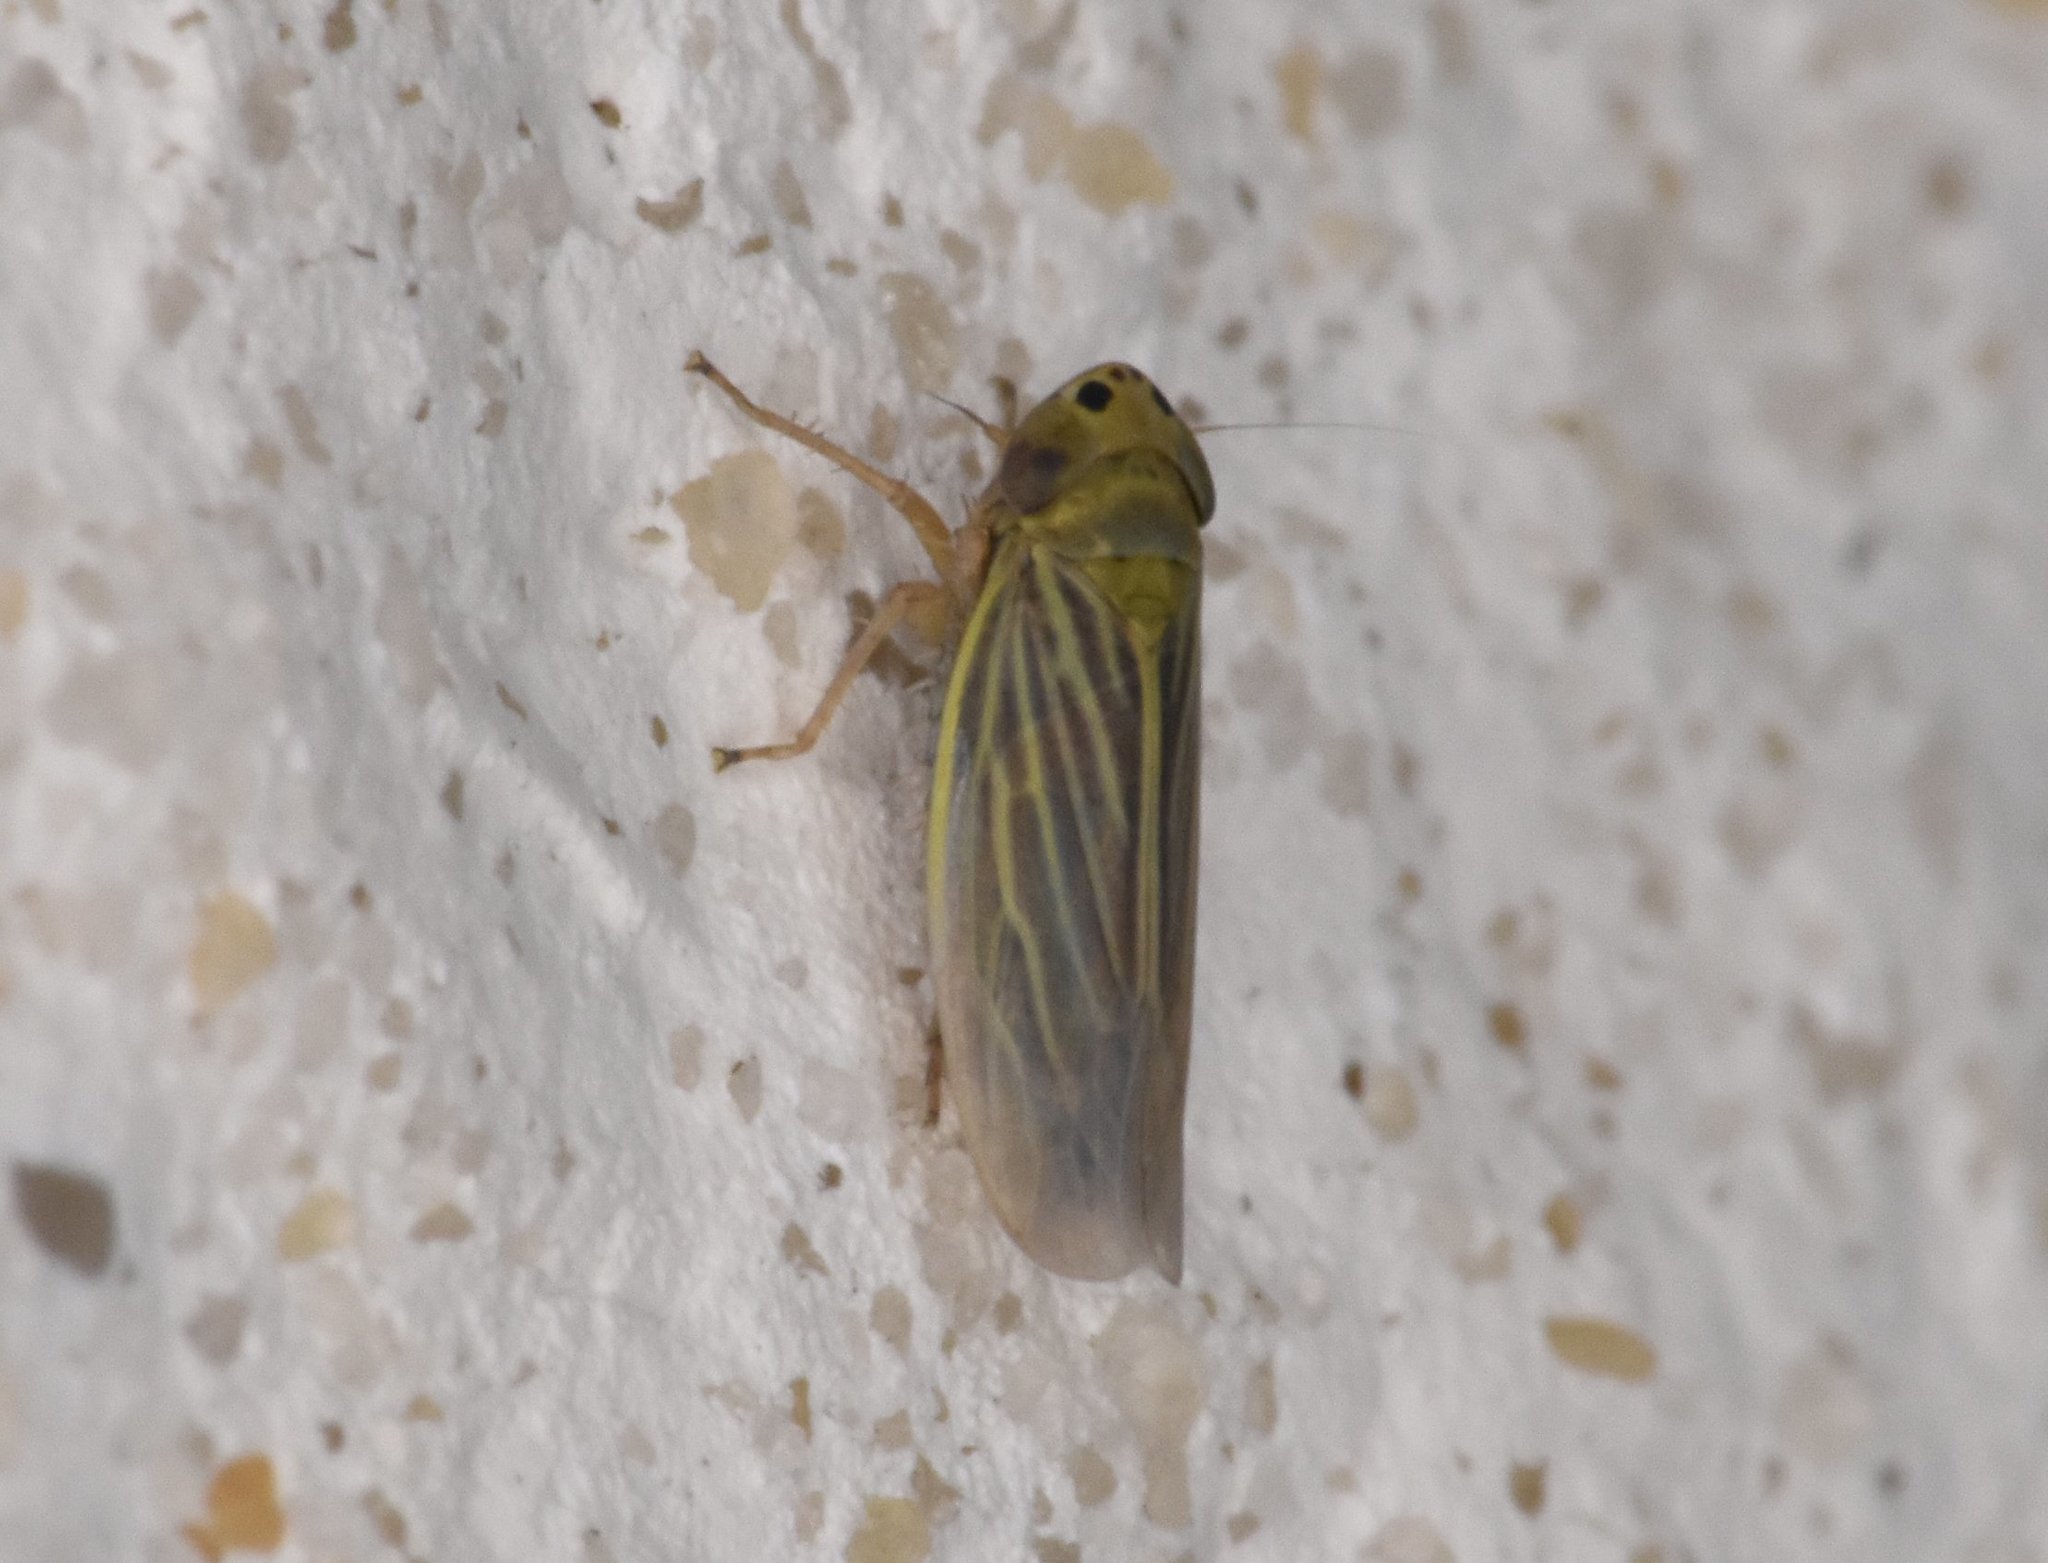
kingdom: Animalia
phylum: Arthropoda
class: Insecta
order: Hemiptera
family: Cicadellidae
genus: Graminella
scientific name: Graminella cognita
